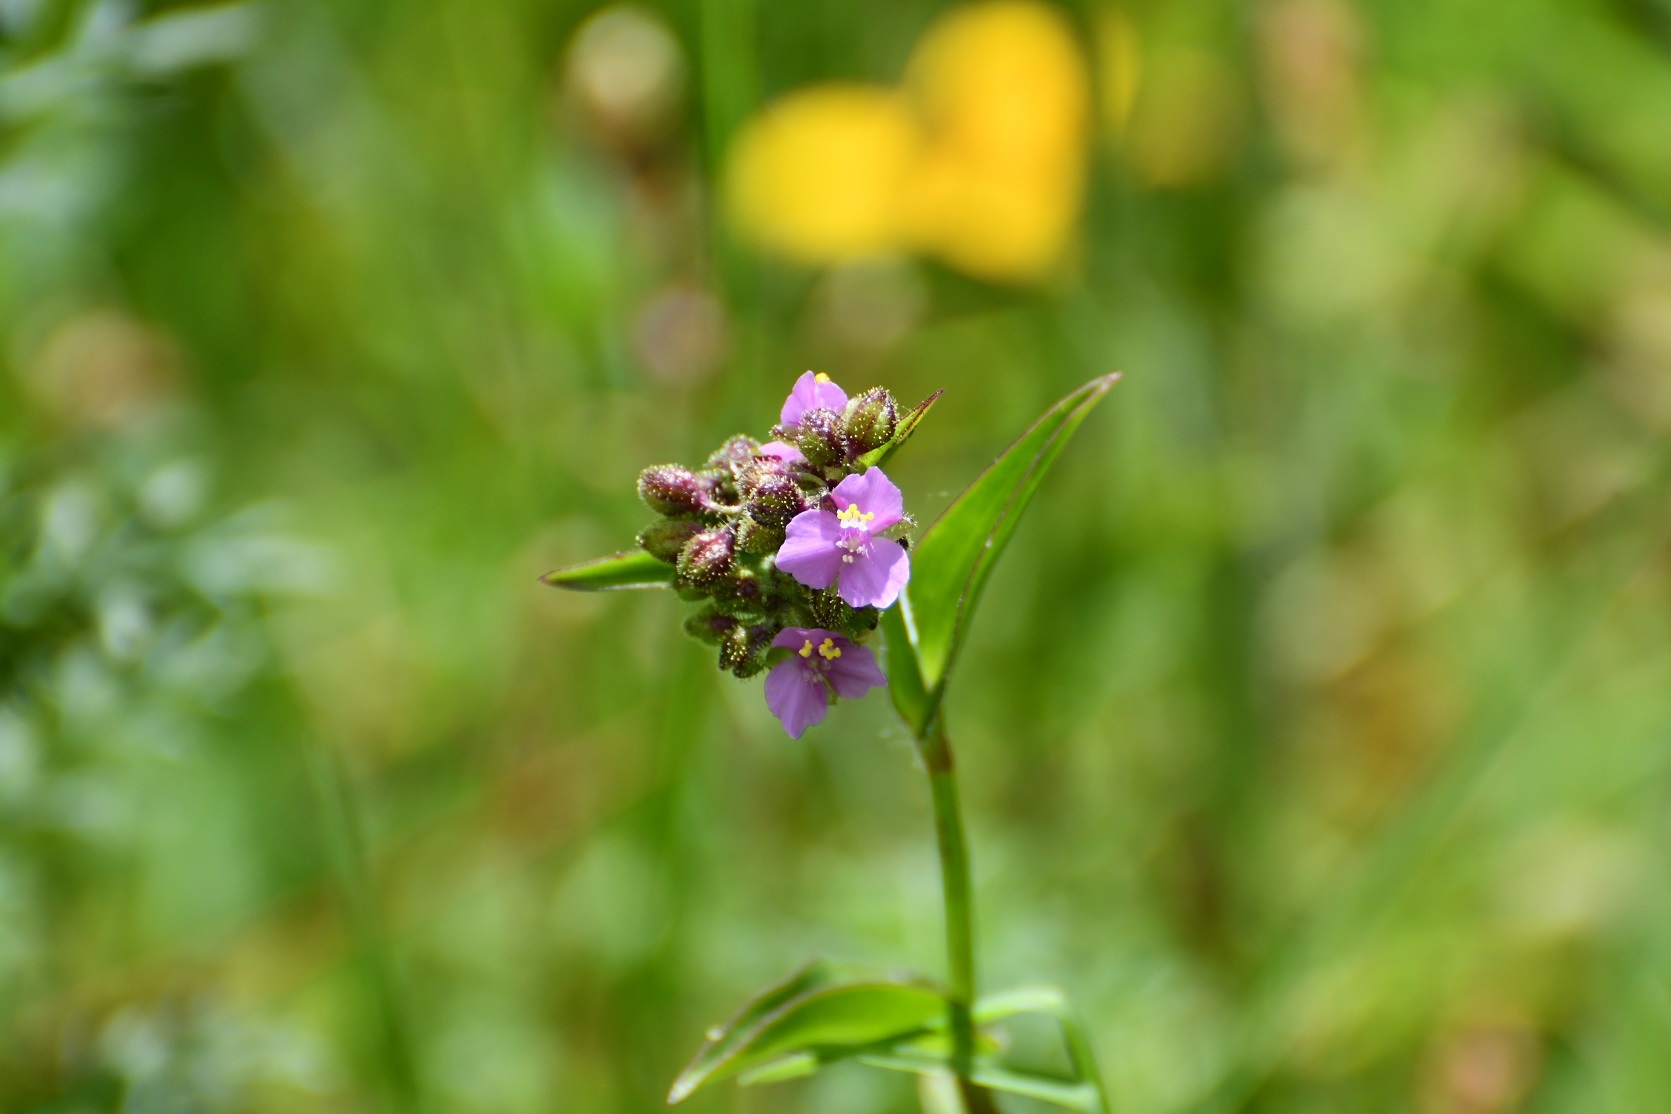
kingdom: Plantae
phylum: Tracheophyta
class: Liliopsida
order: Commelinales
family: Commelinaceae
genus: Callisia
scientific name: Callisia purpurascens
